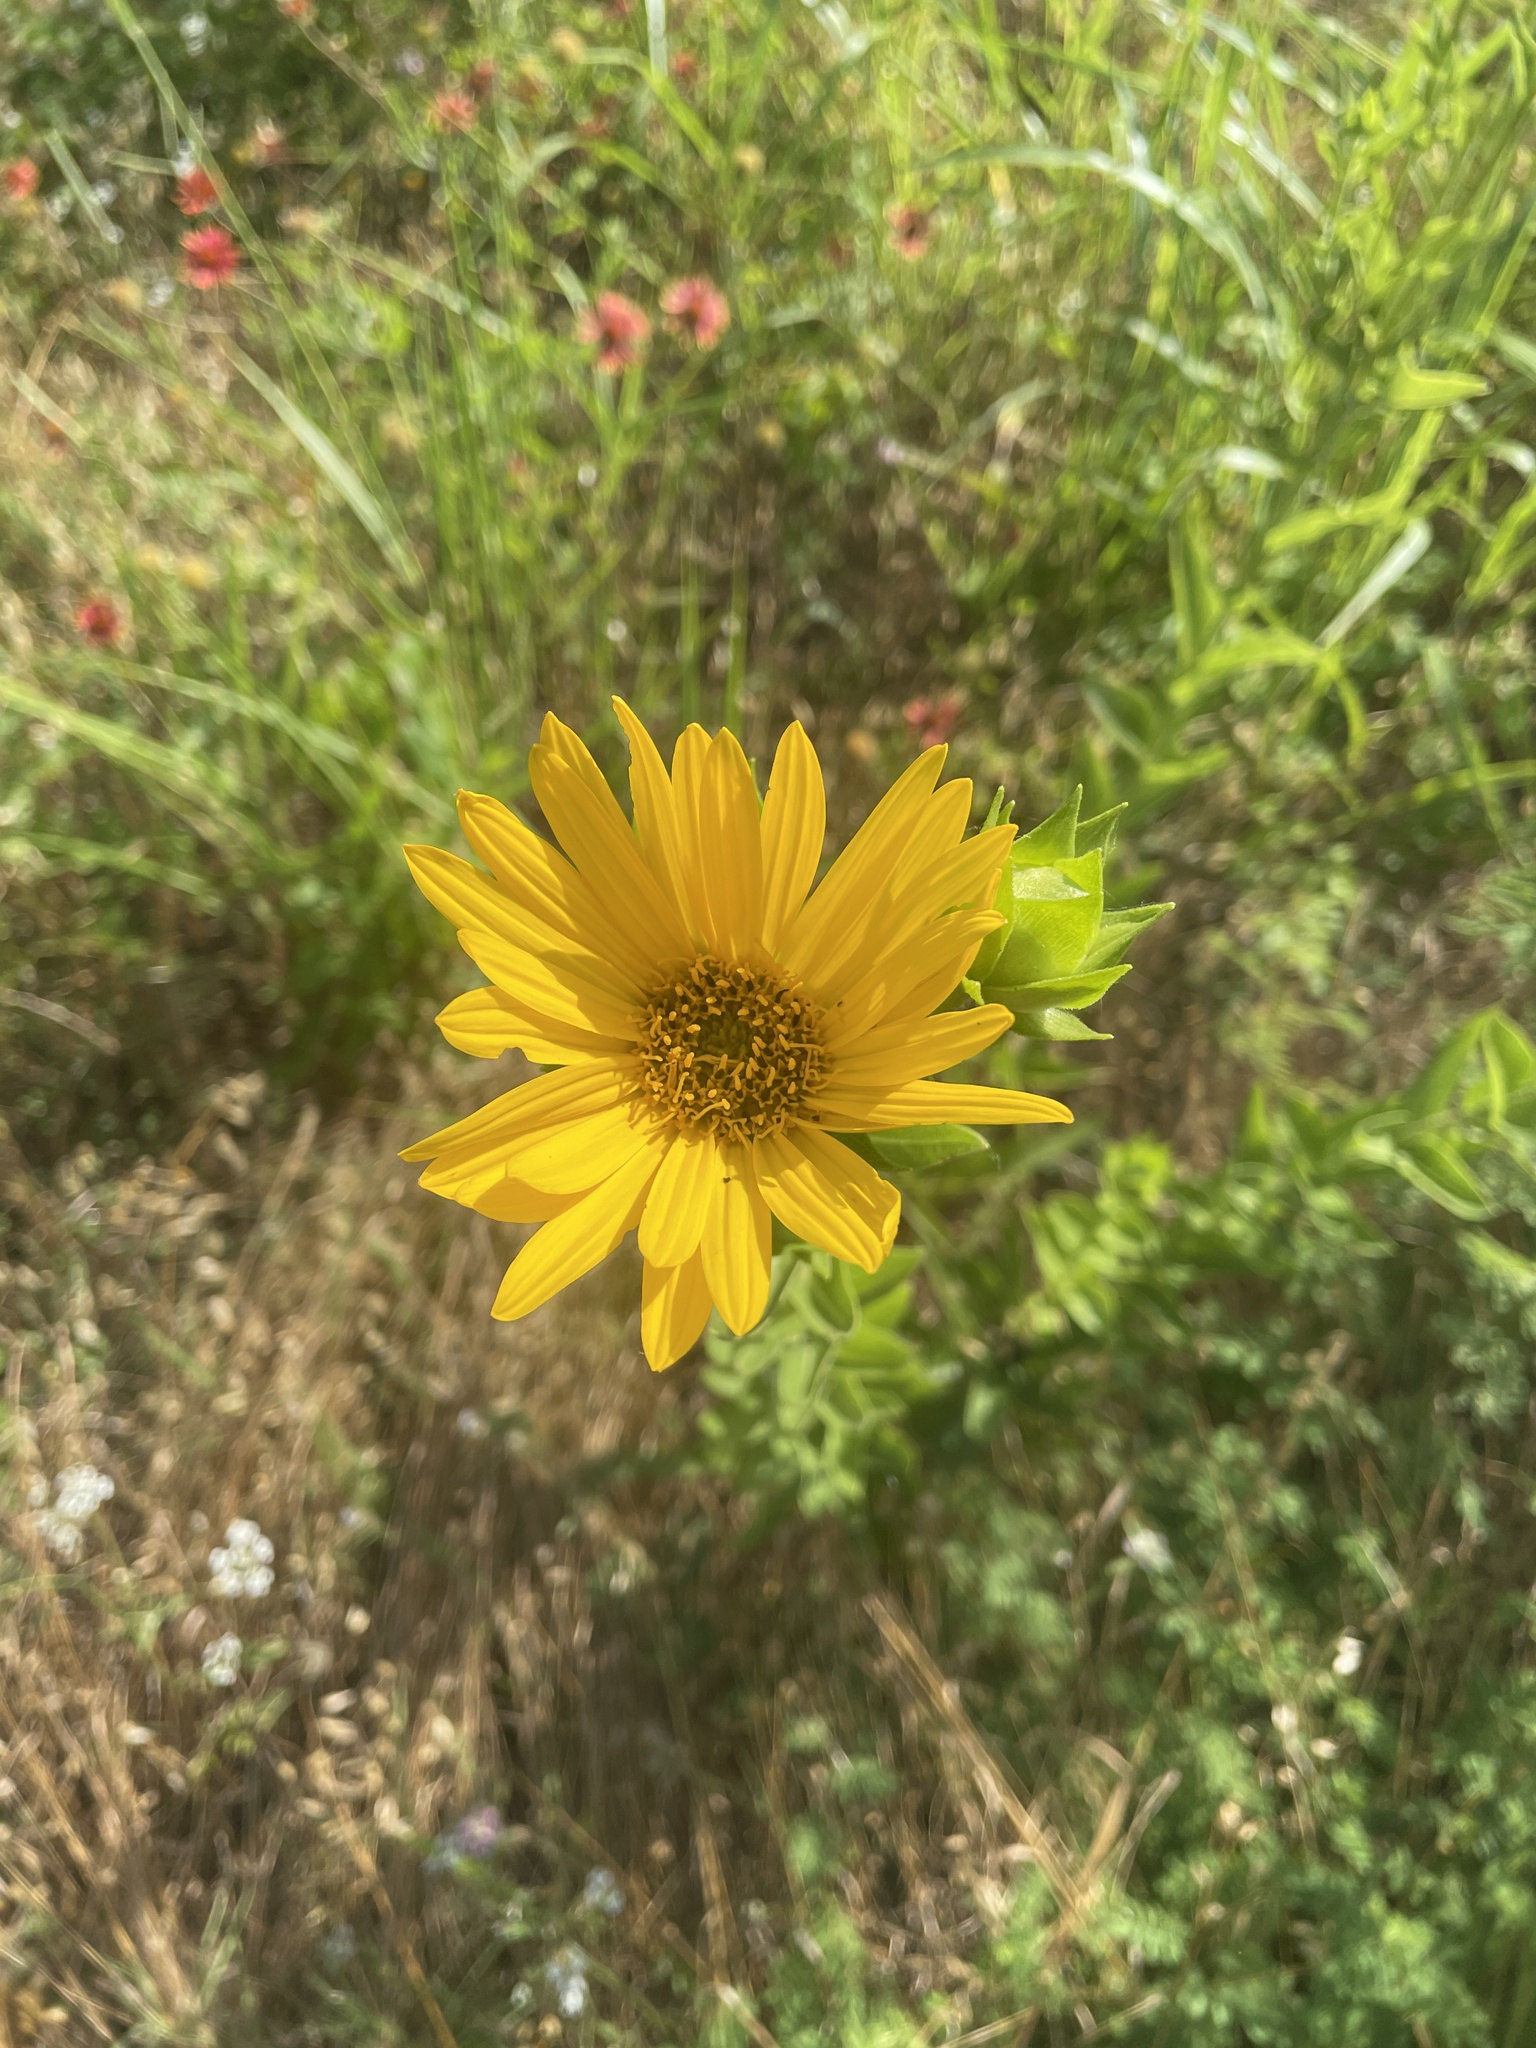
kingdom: Plantae
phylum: Tracheophyta
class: Magnoliopsida
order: Asterales
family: Asteraceae
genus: Silphium
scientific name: Silphium radula
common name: Roughleaf rosinweed
